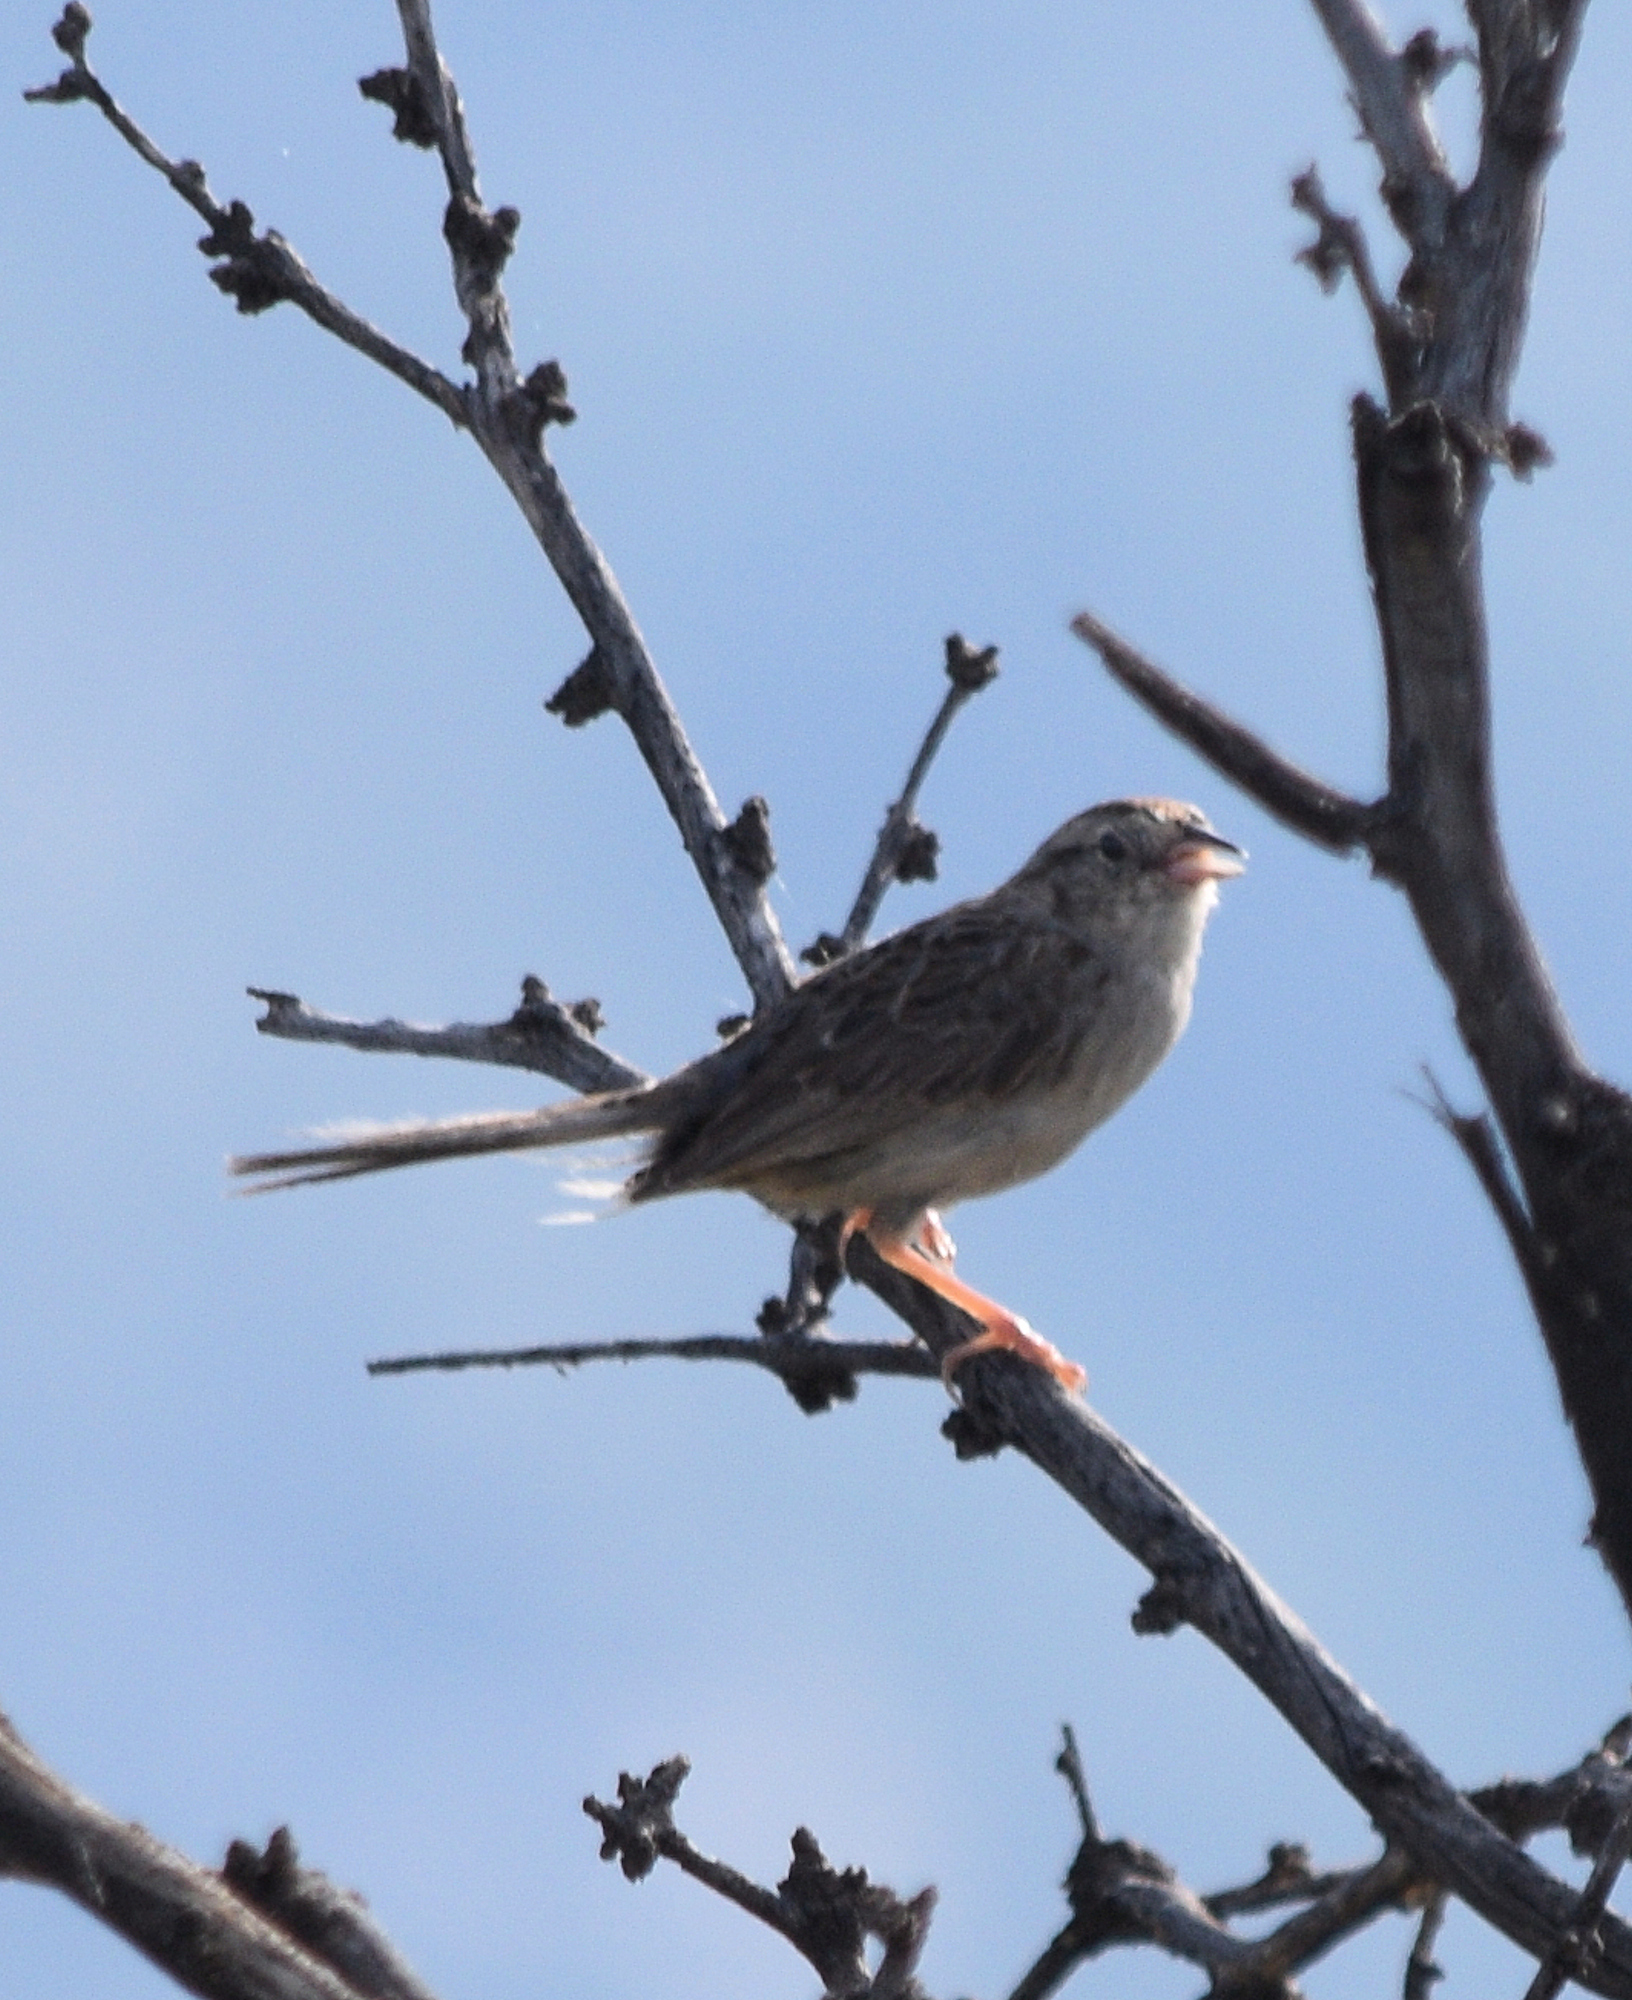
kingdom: Animalia
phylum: Chordata
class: Aves
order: Passeriformes
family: Passerellidae
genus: Peucaea
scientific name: Peucaea cassinii
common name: Cassin's sparrow
